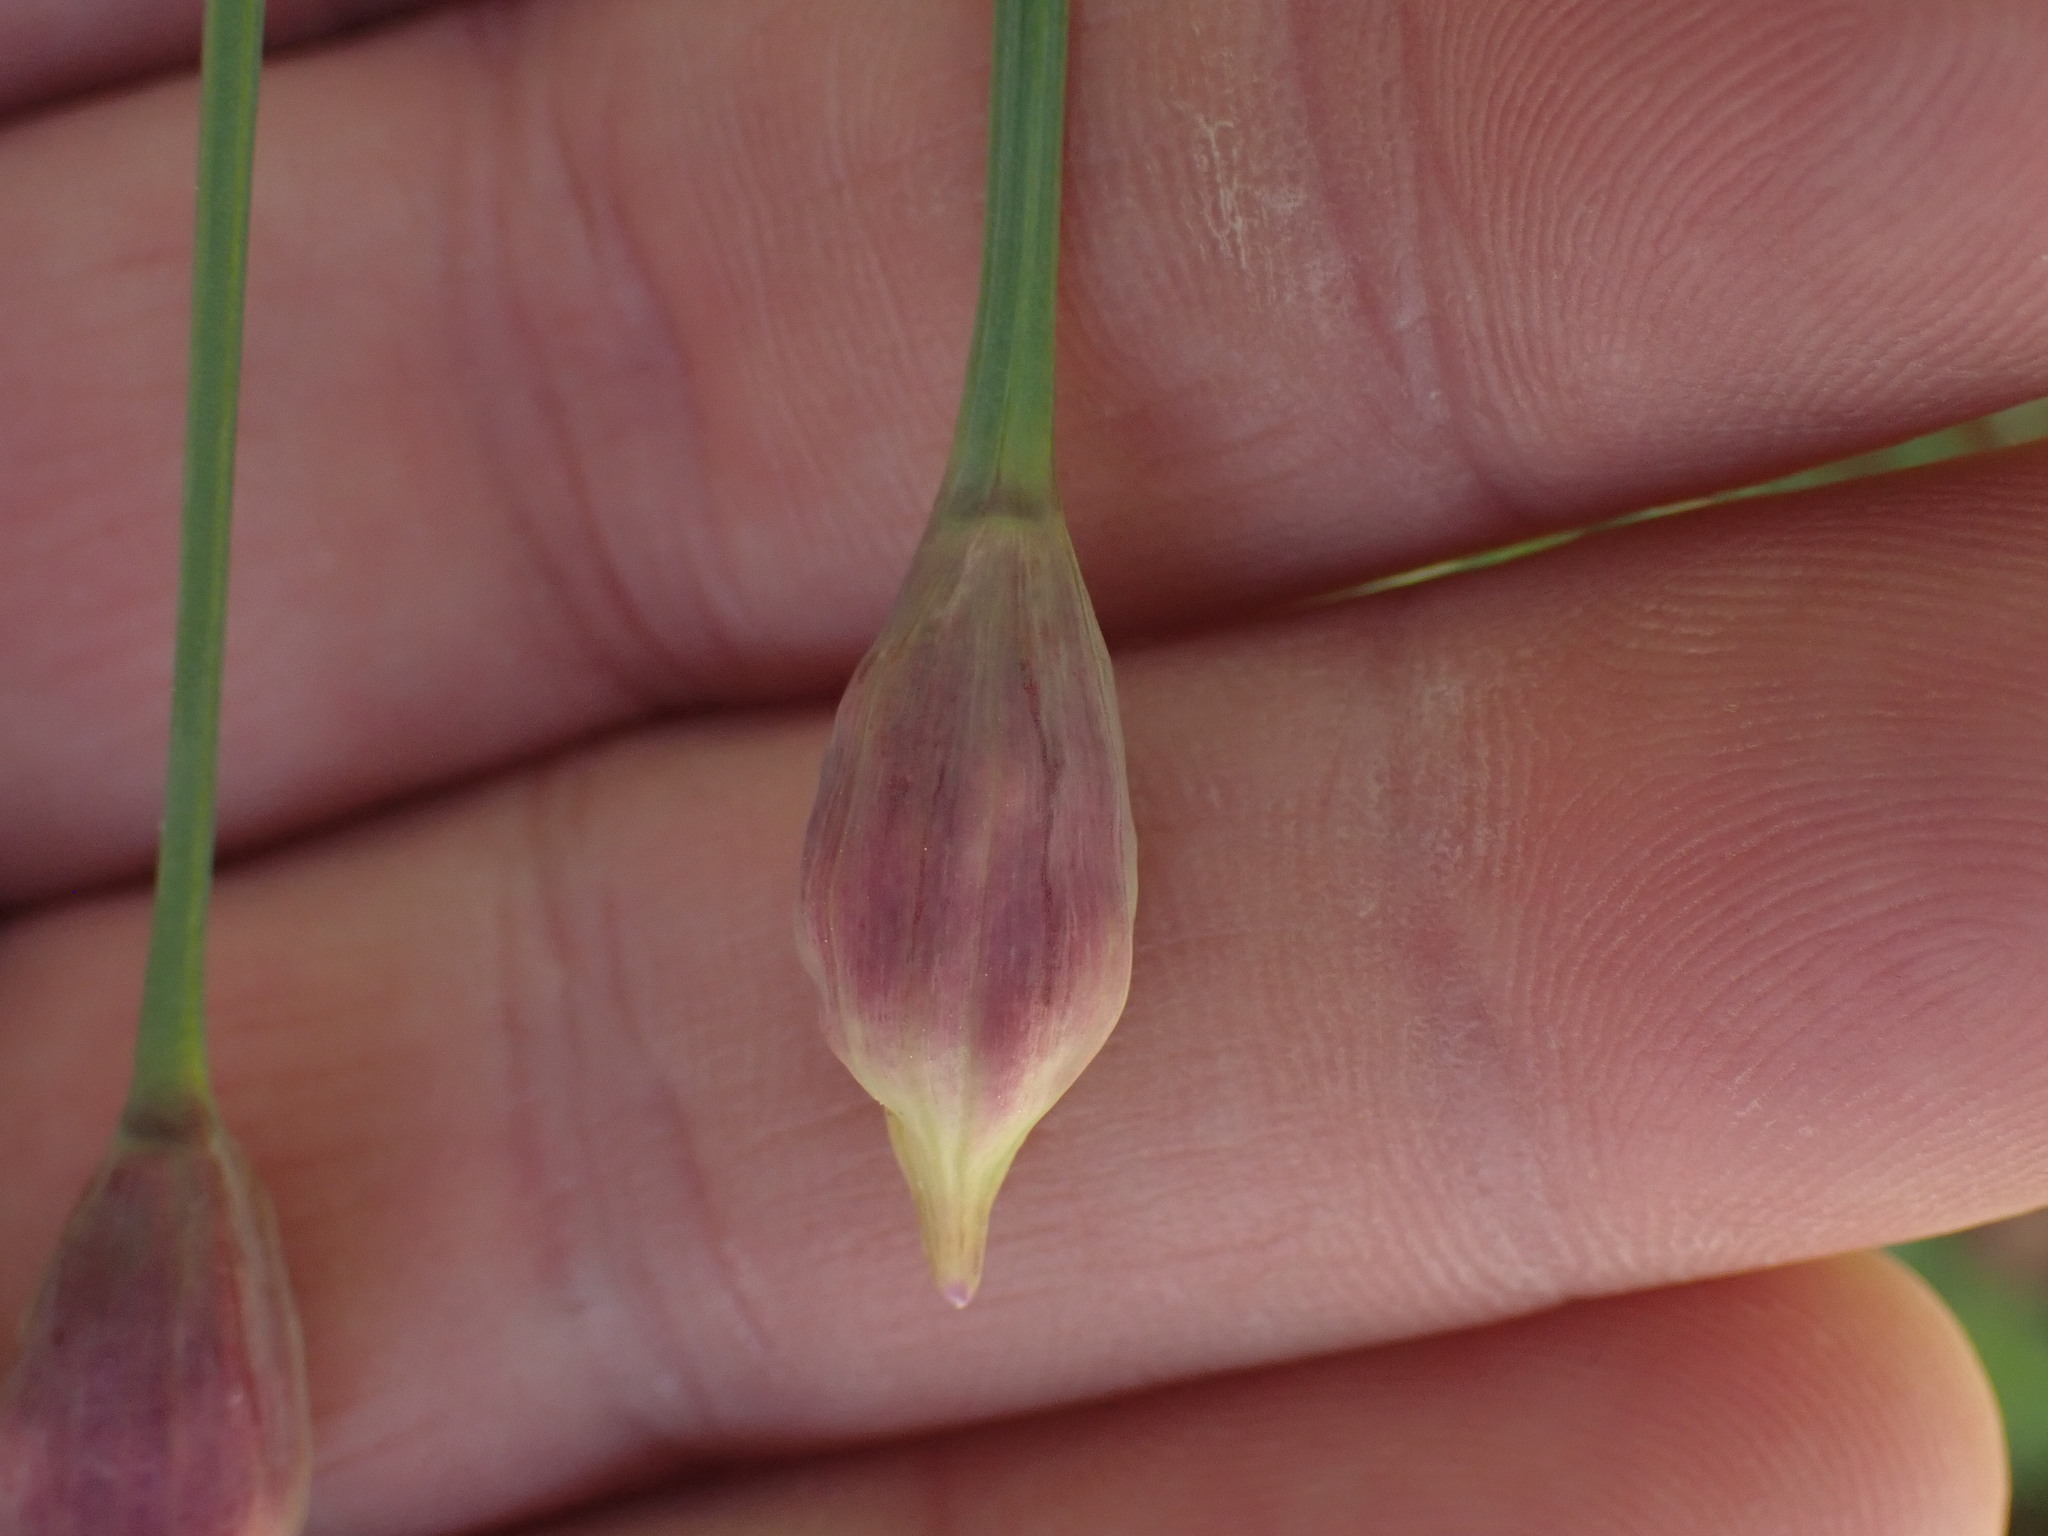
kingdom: Plantae
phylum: Tracheophyta
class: Liliopsida
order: Asparagales
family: Amaryllidaceae
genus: Allium
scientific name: Allium cernuum
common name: Nodding onion
